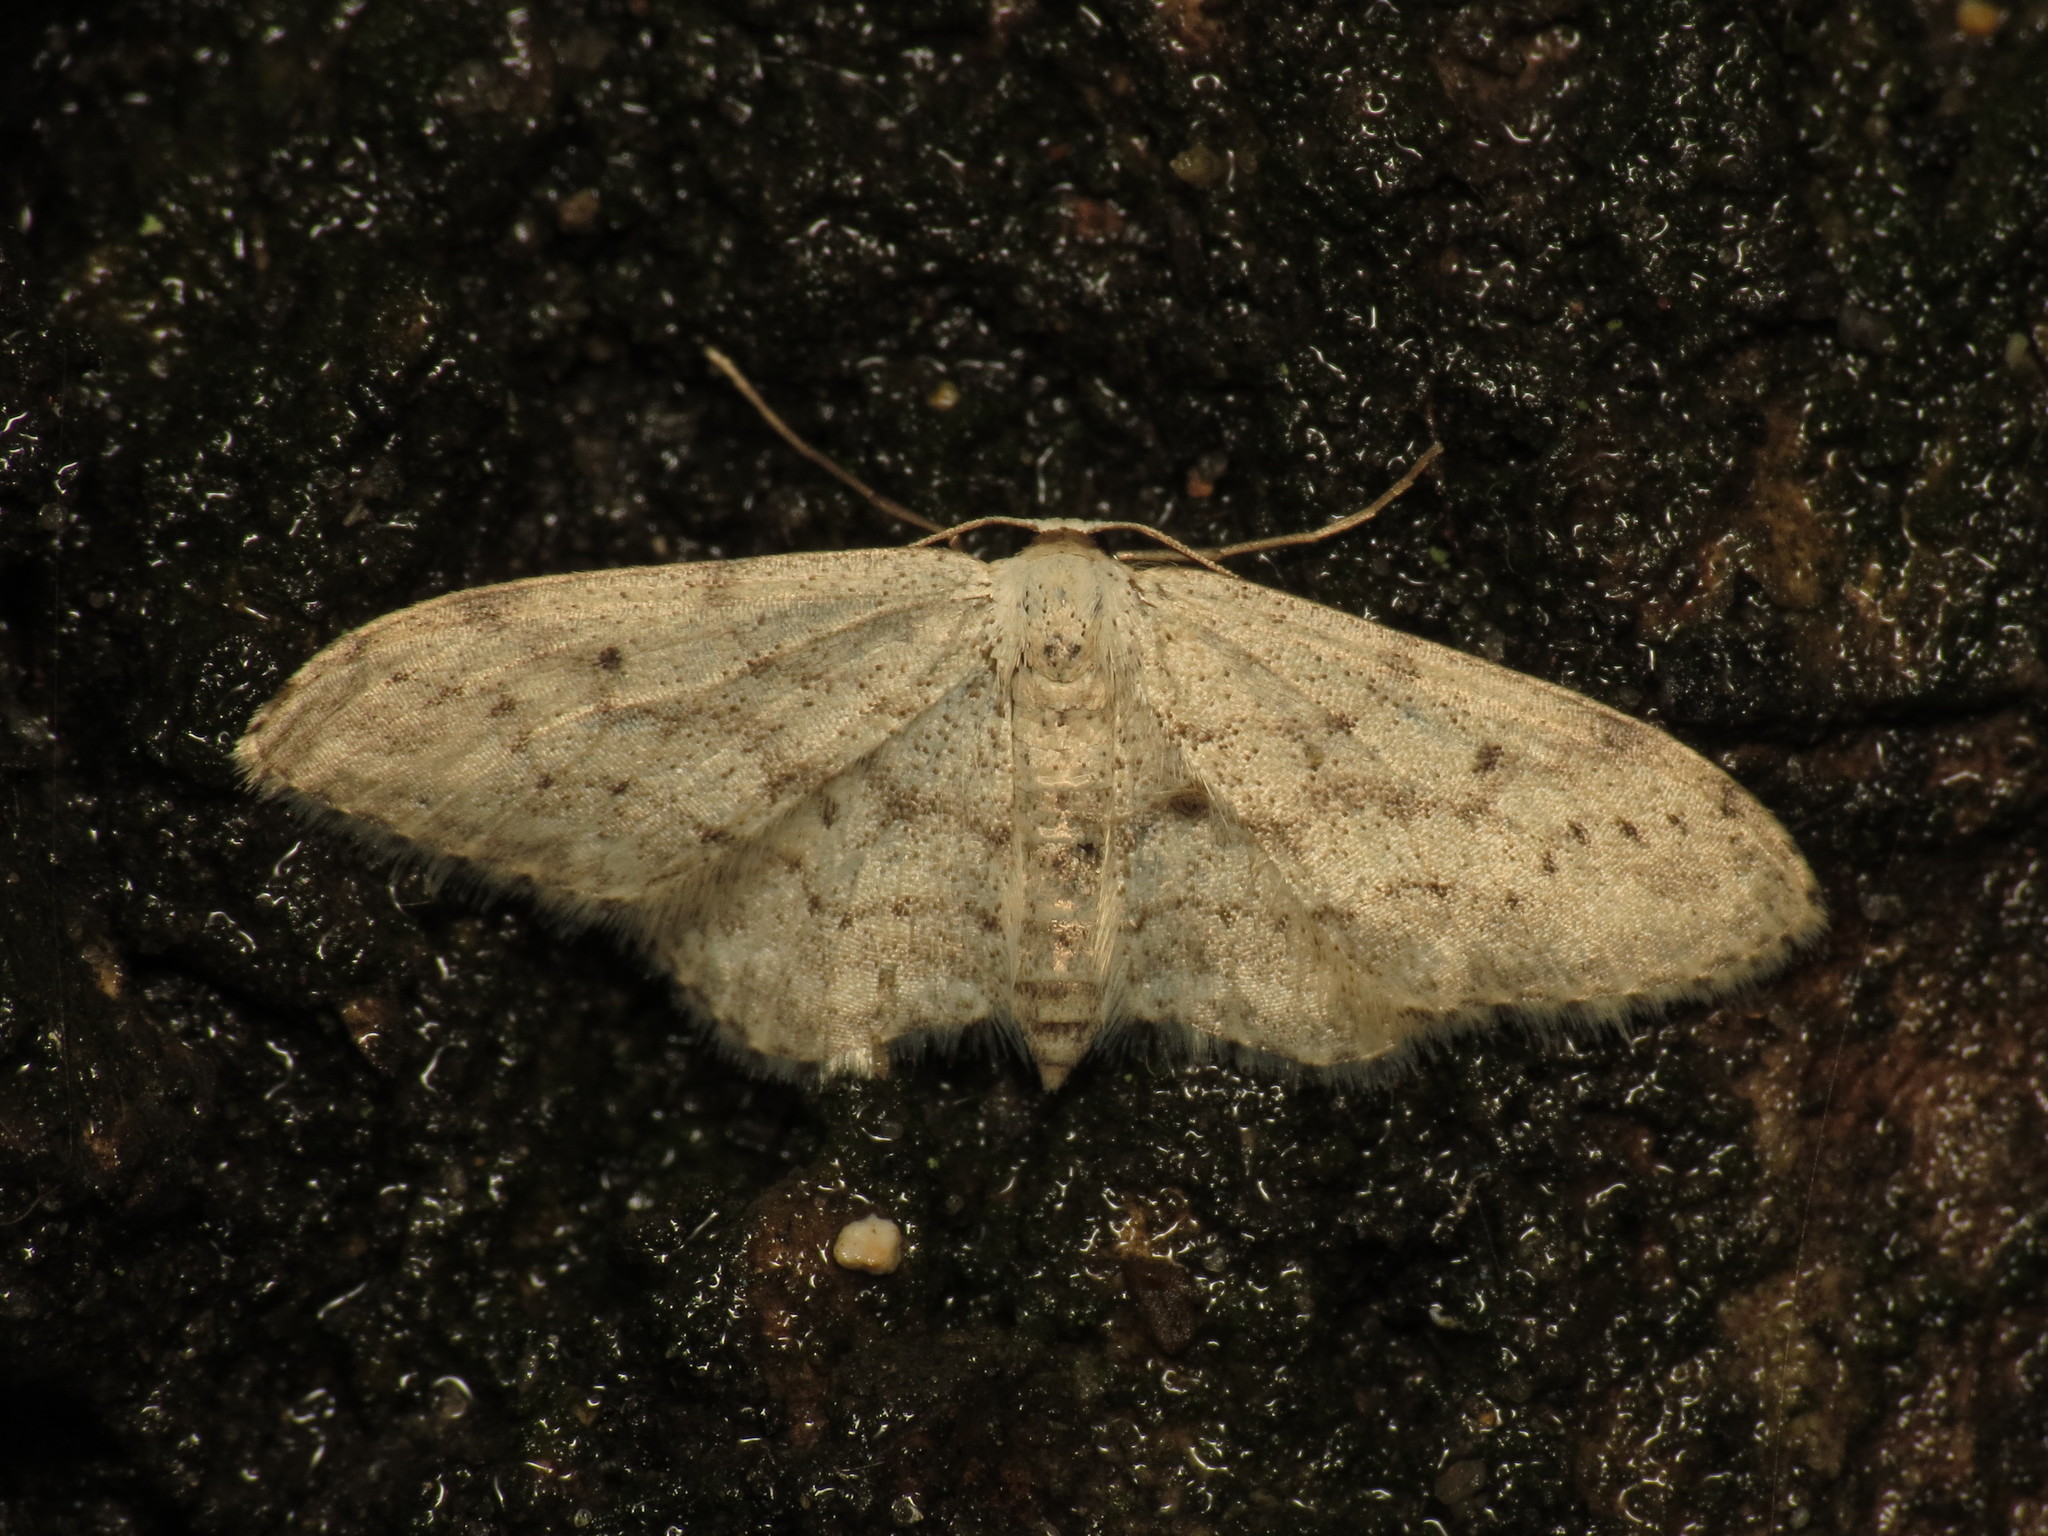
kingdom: Animalia
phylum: Arthropoda
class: Insecta
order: Lepidoptera
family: Geometridae
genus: Idaea
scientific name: Idaea seriata
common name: Small dusty wave
